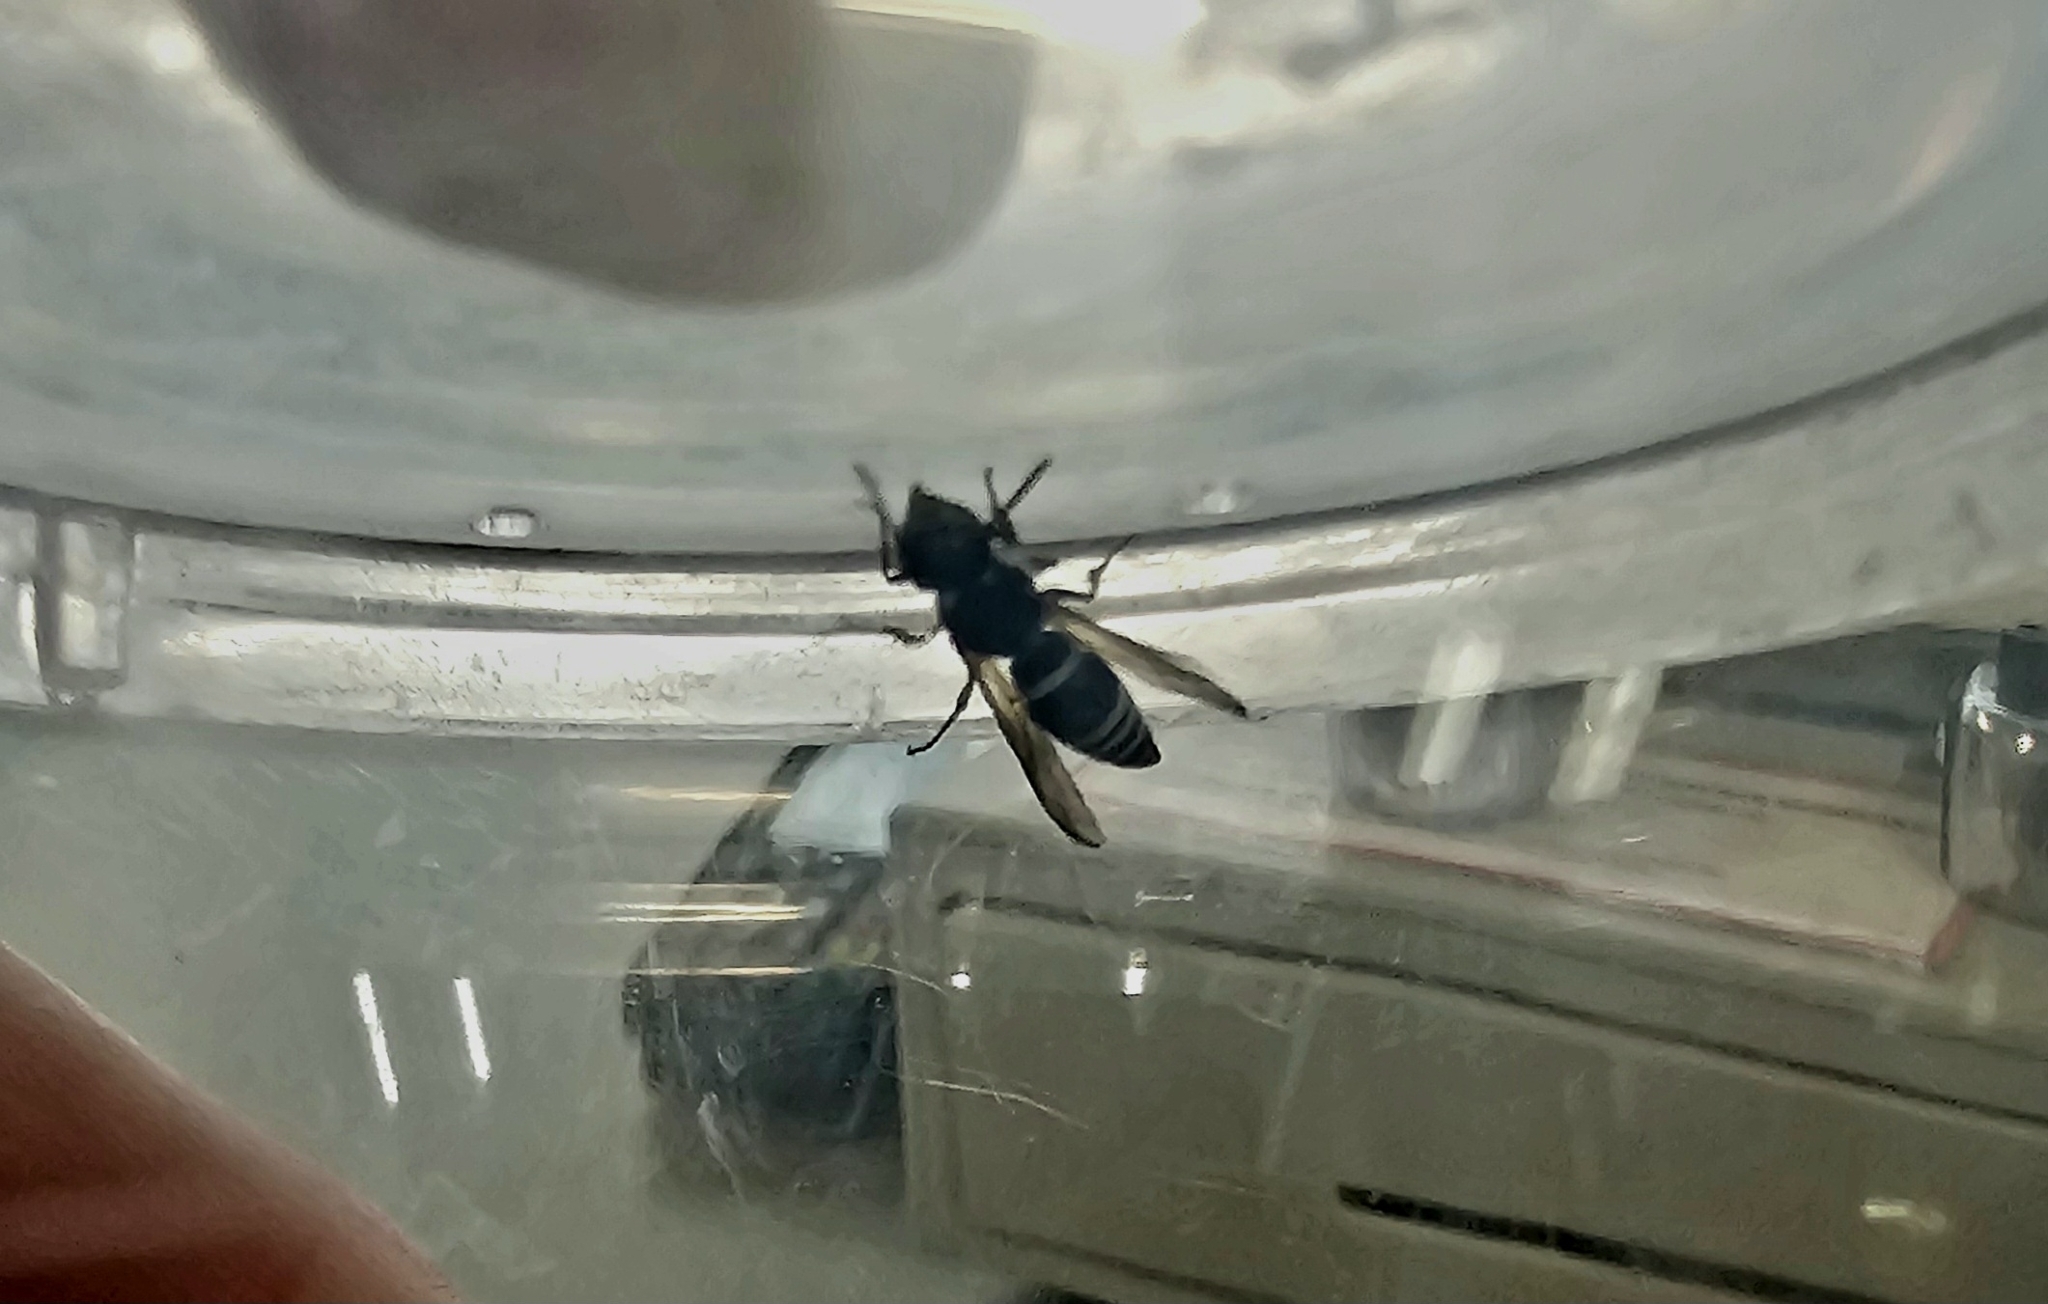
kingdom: Animalia
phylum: Arthropoda
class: Insecta
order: Hymenoptera
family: Eumenidae
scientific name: Eumenidae
